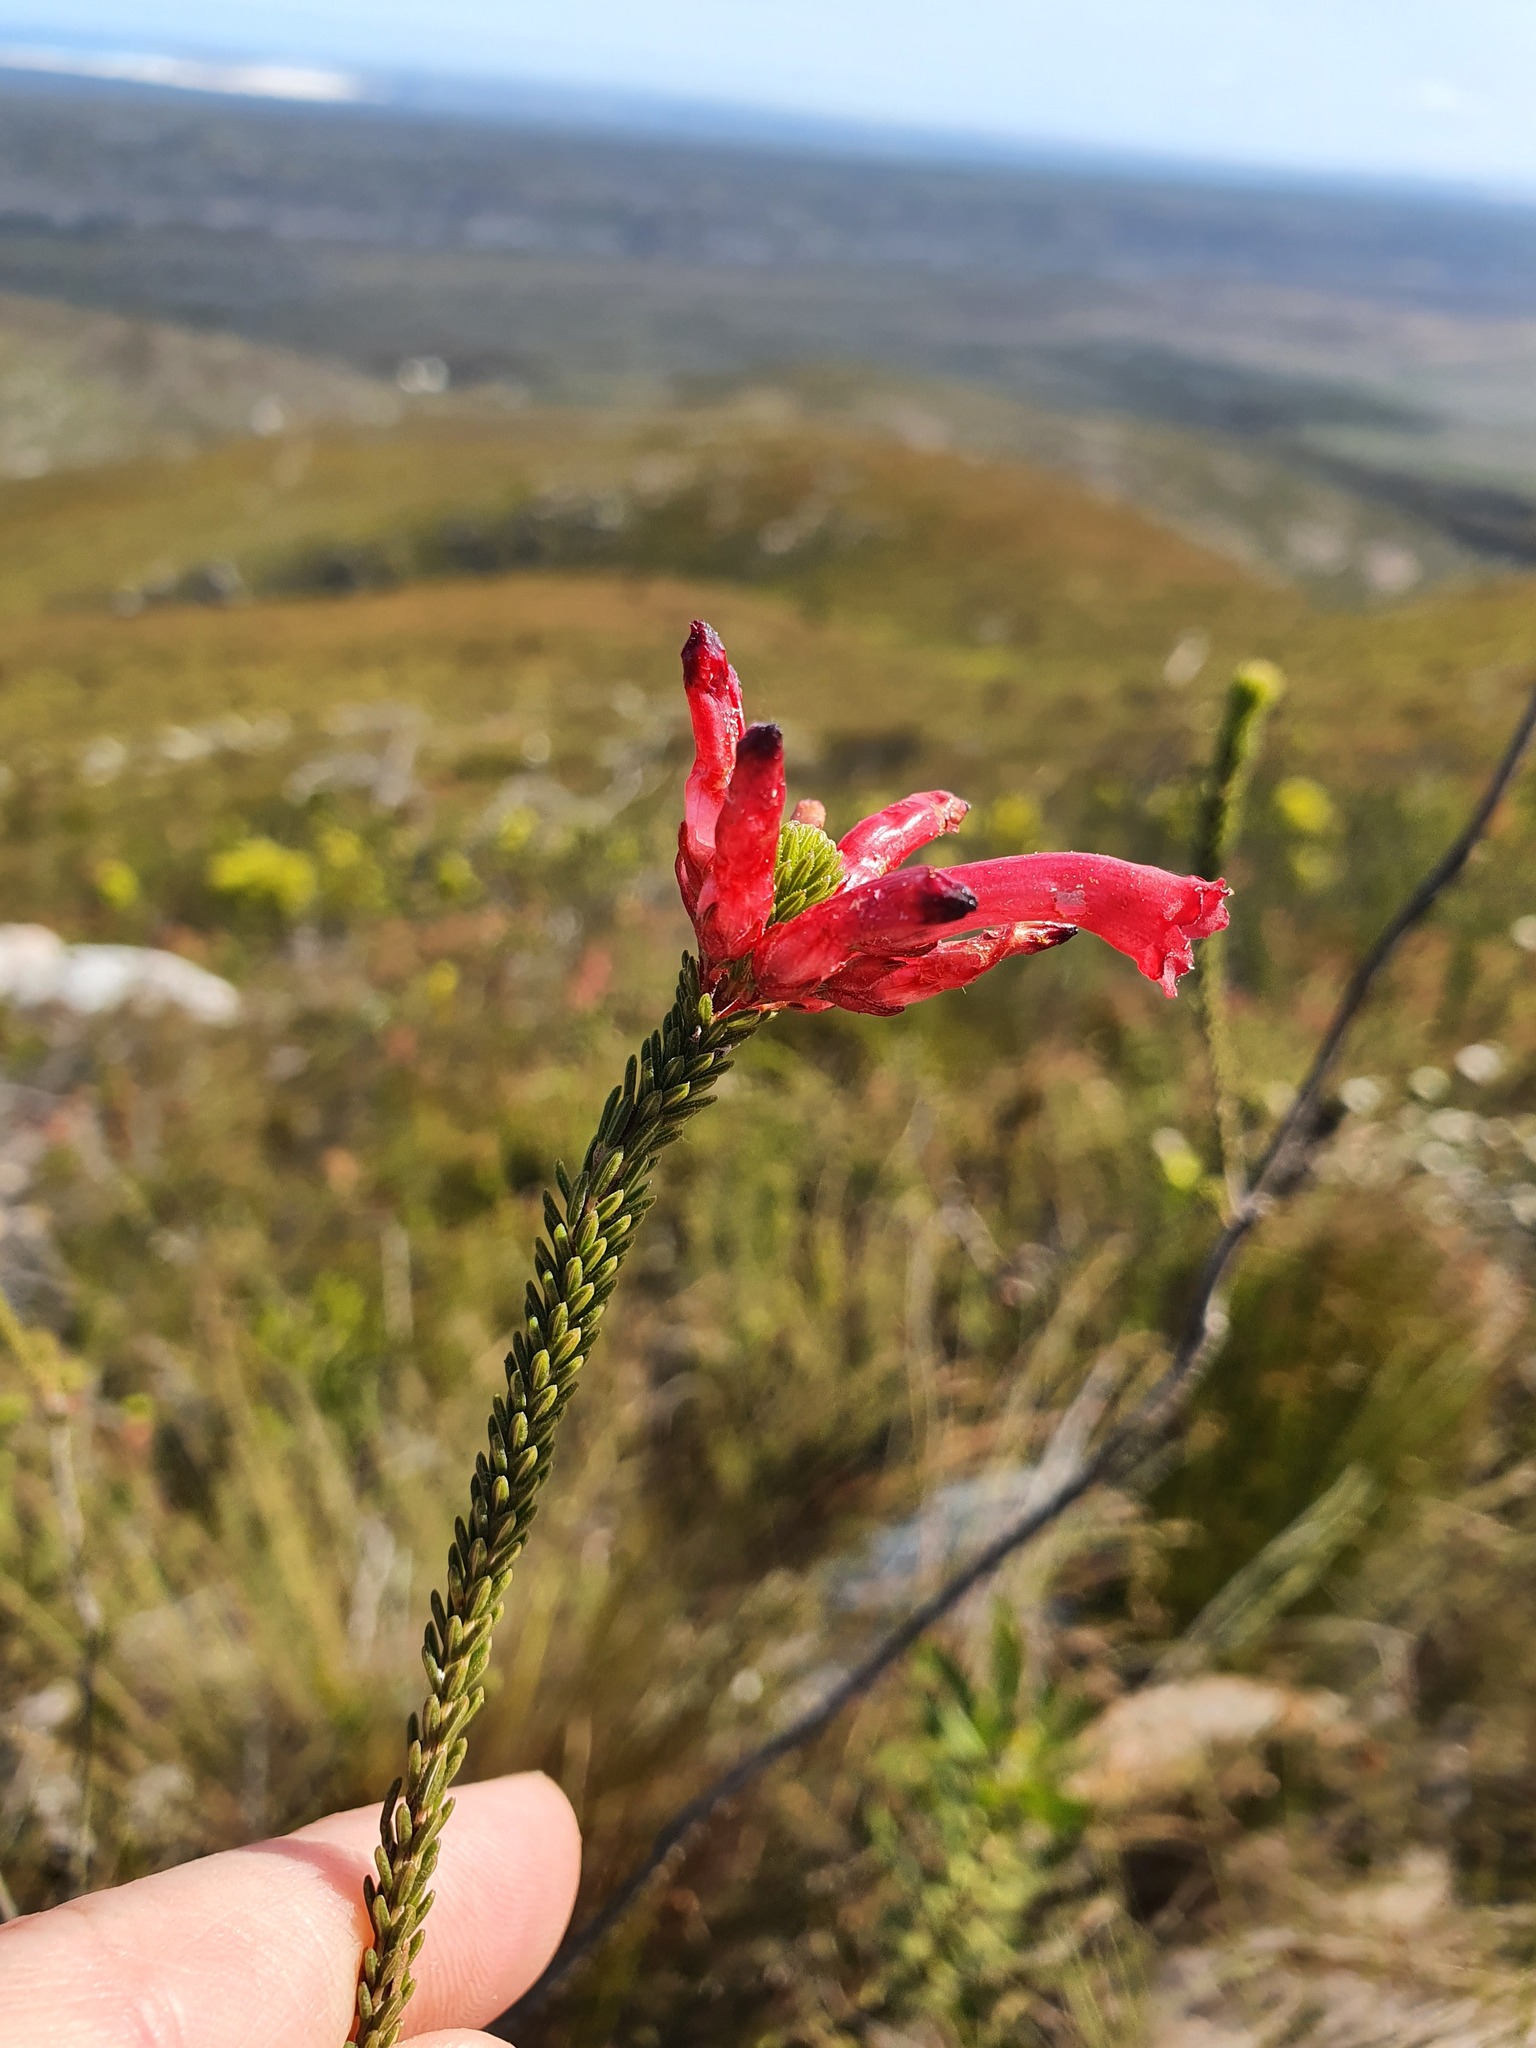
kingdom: Plantae
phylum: Tracheophyta
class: Magnoliopsida
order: Ericales
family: Ericaceae
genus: Erica
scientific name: Erica regia
